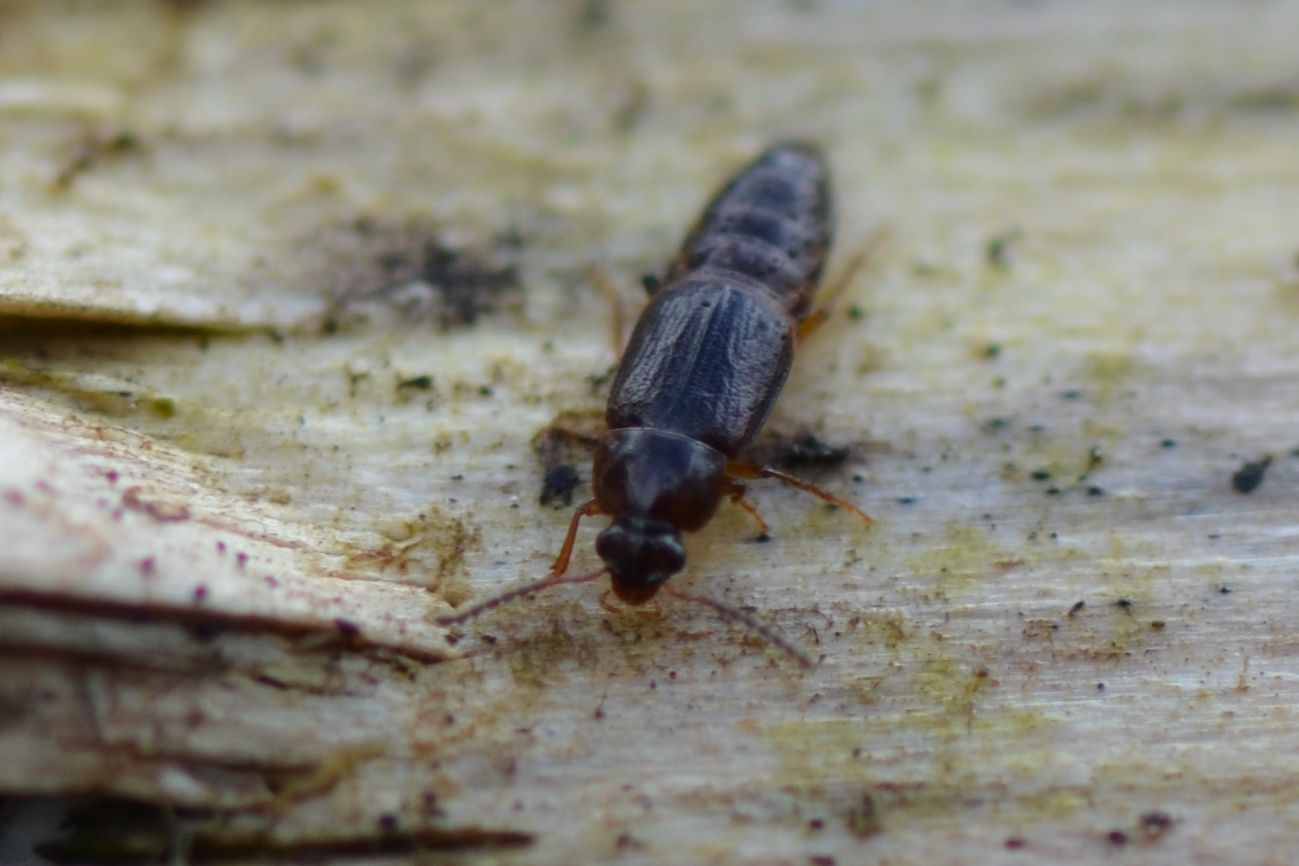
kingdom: Animalia
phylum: Arthropoda
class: Insecta
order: Coleoptera
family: Staphylinidae
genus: Phyllodrepoidea
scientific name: Phyllodrepoidea crenata
